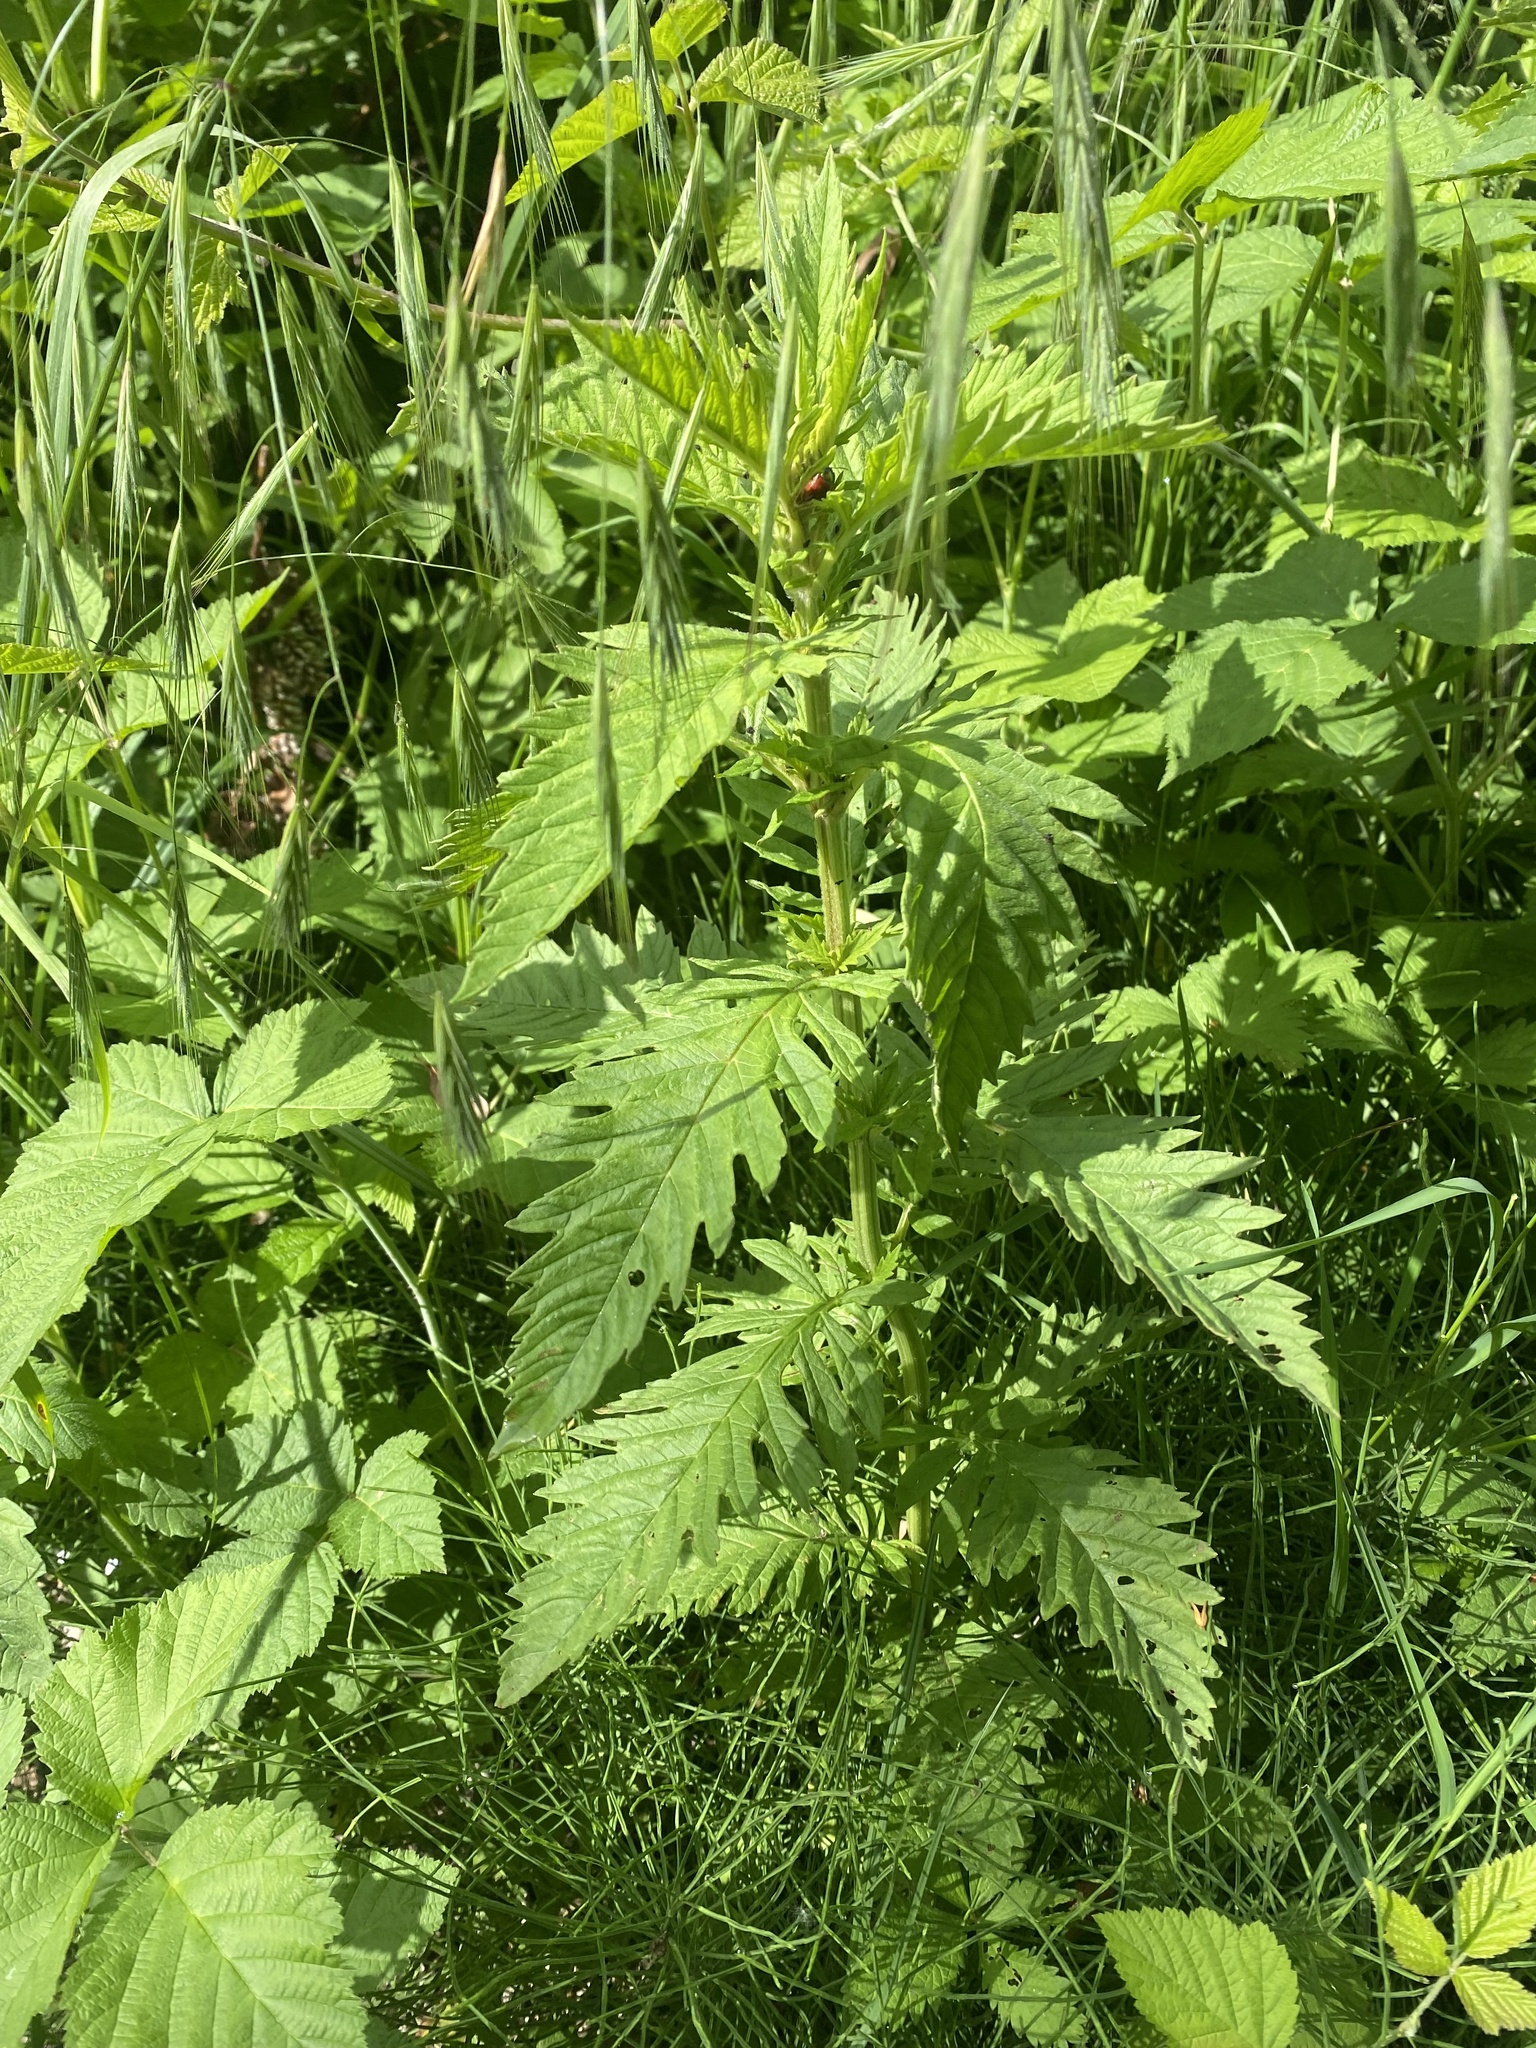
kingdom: Plantae
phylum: Tracheophyta
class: Magnoliopsida
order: Lamiales
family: Lamiaceae
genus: Lycopus
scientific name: Lycopus europaeus
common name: European bugleweed
